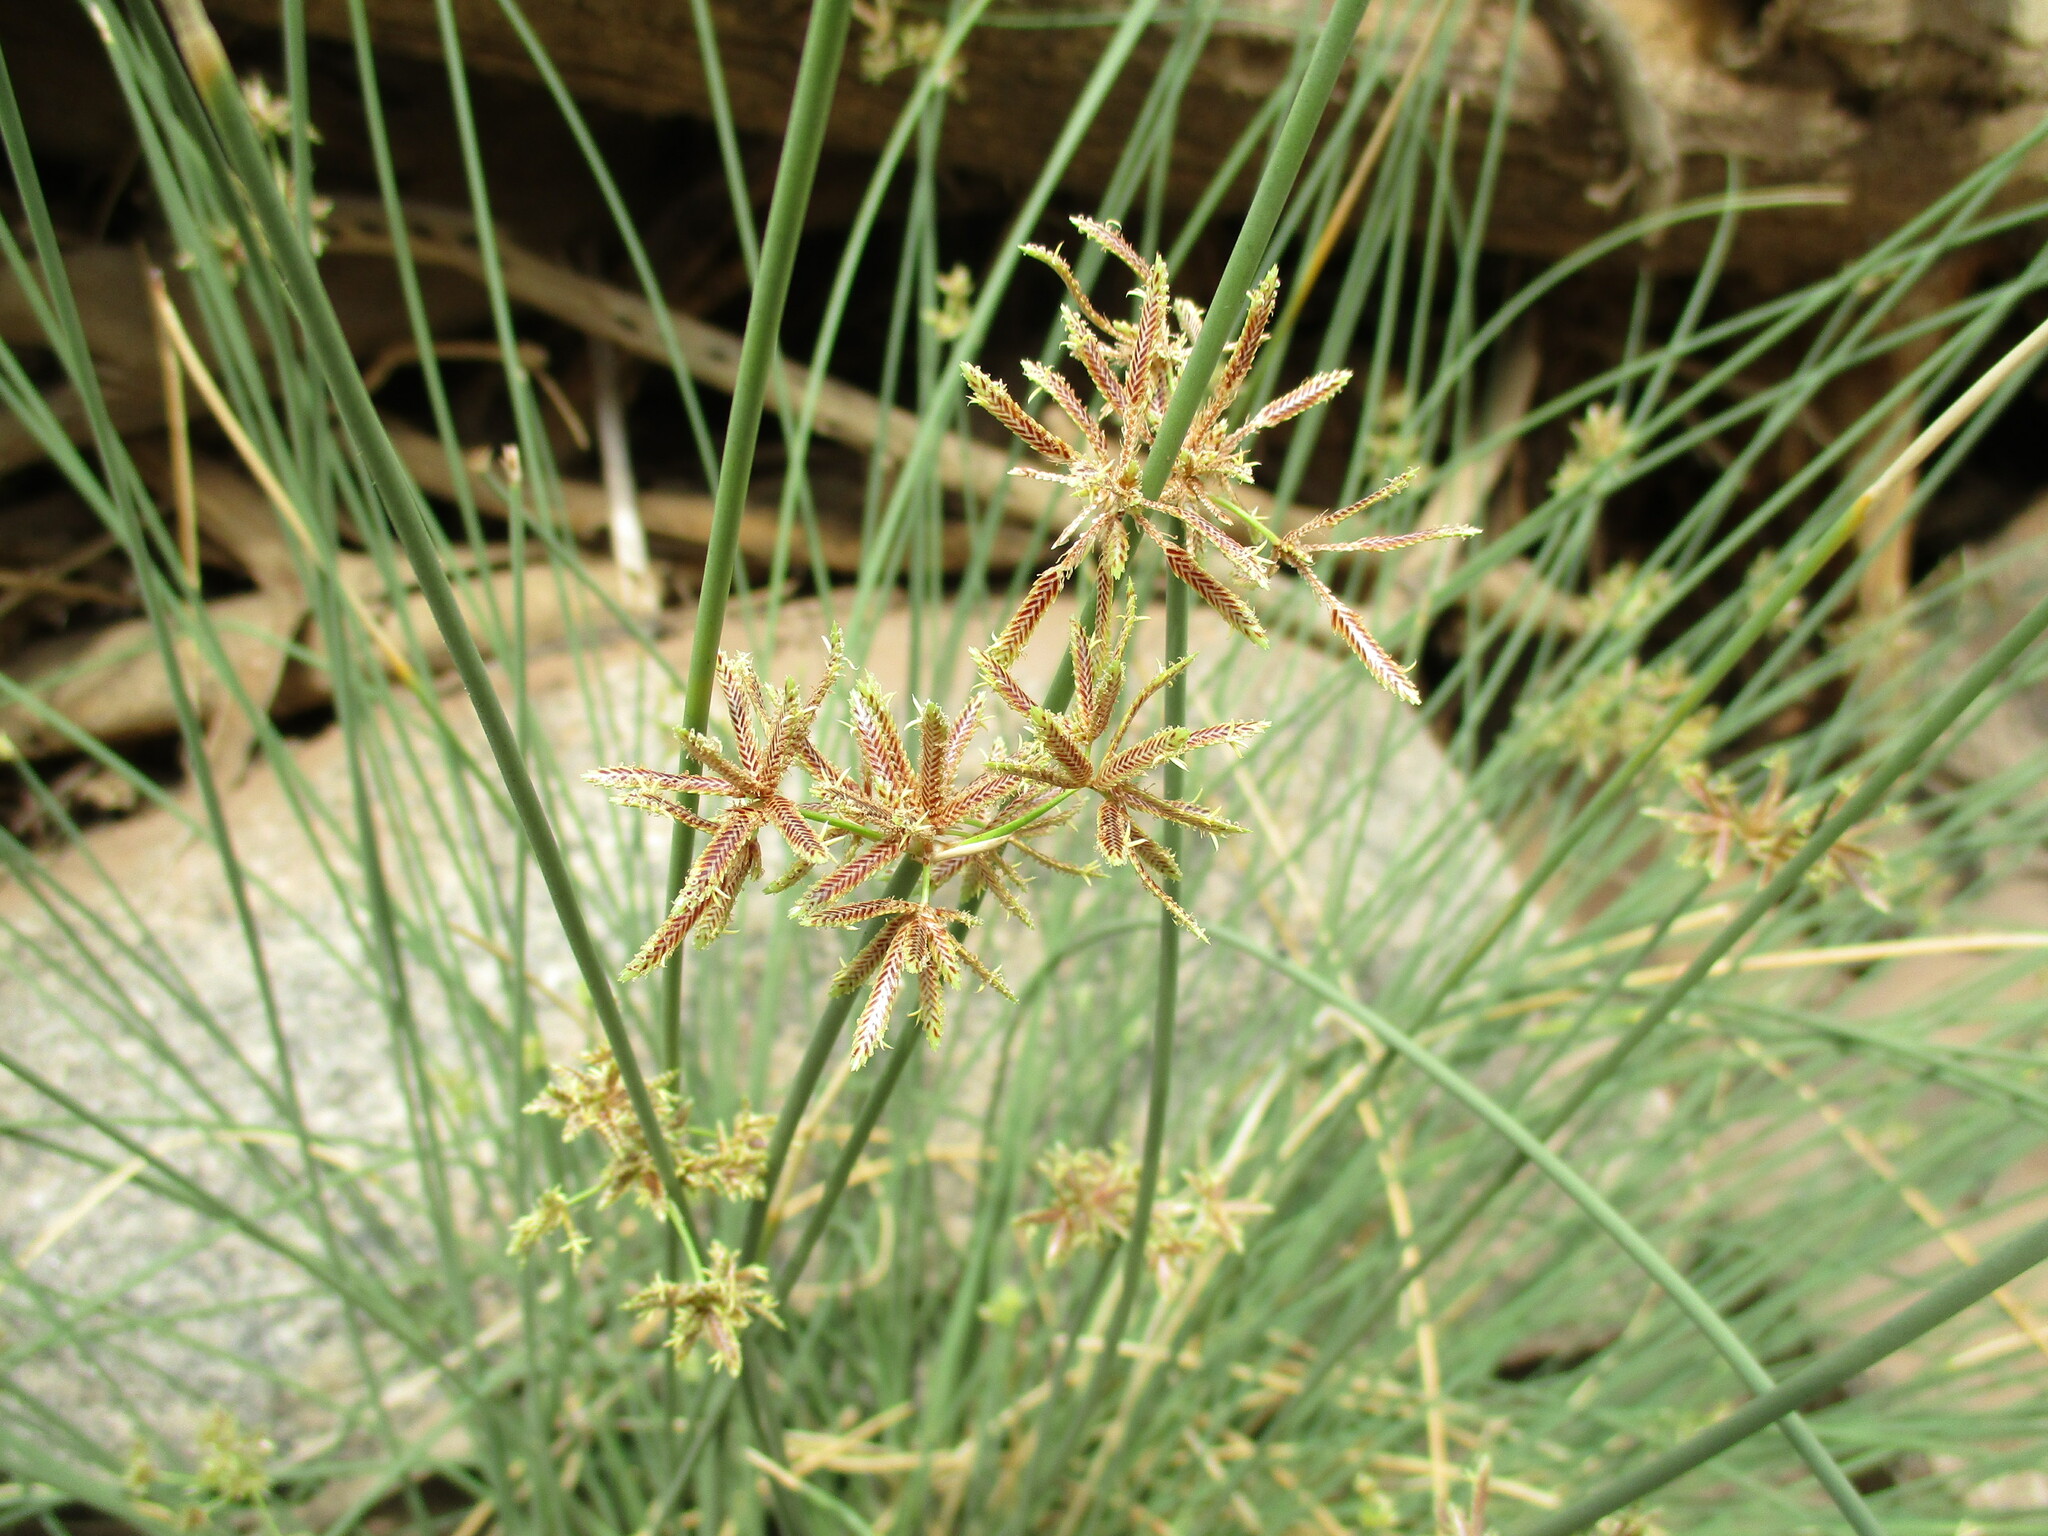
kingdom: Plantae
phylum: Tracheophyta
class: Liliopsida
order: Poales
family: Cyperaceae
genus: Cyperus
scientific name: Cyperus marginatus
